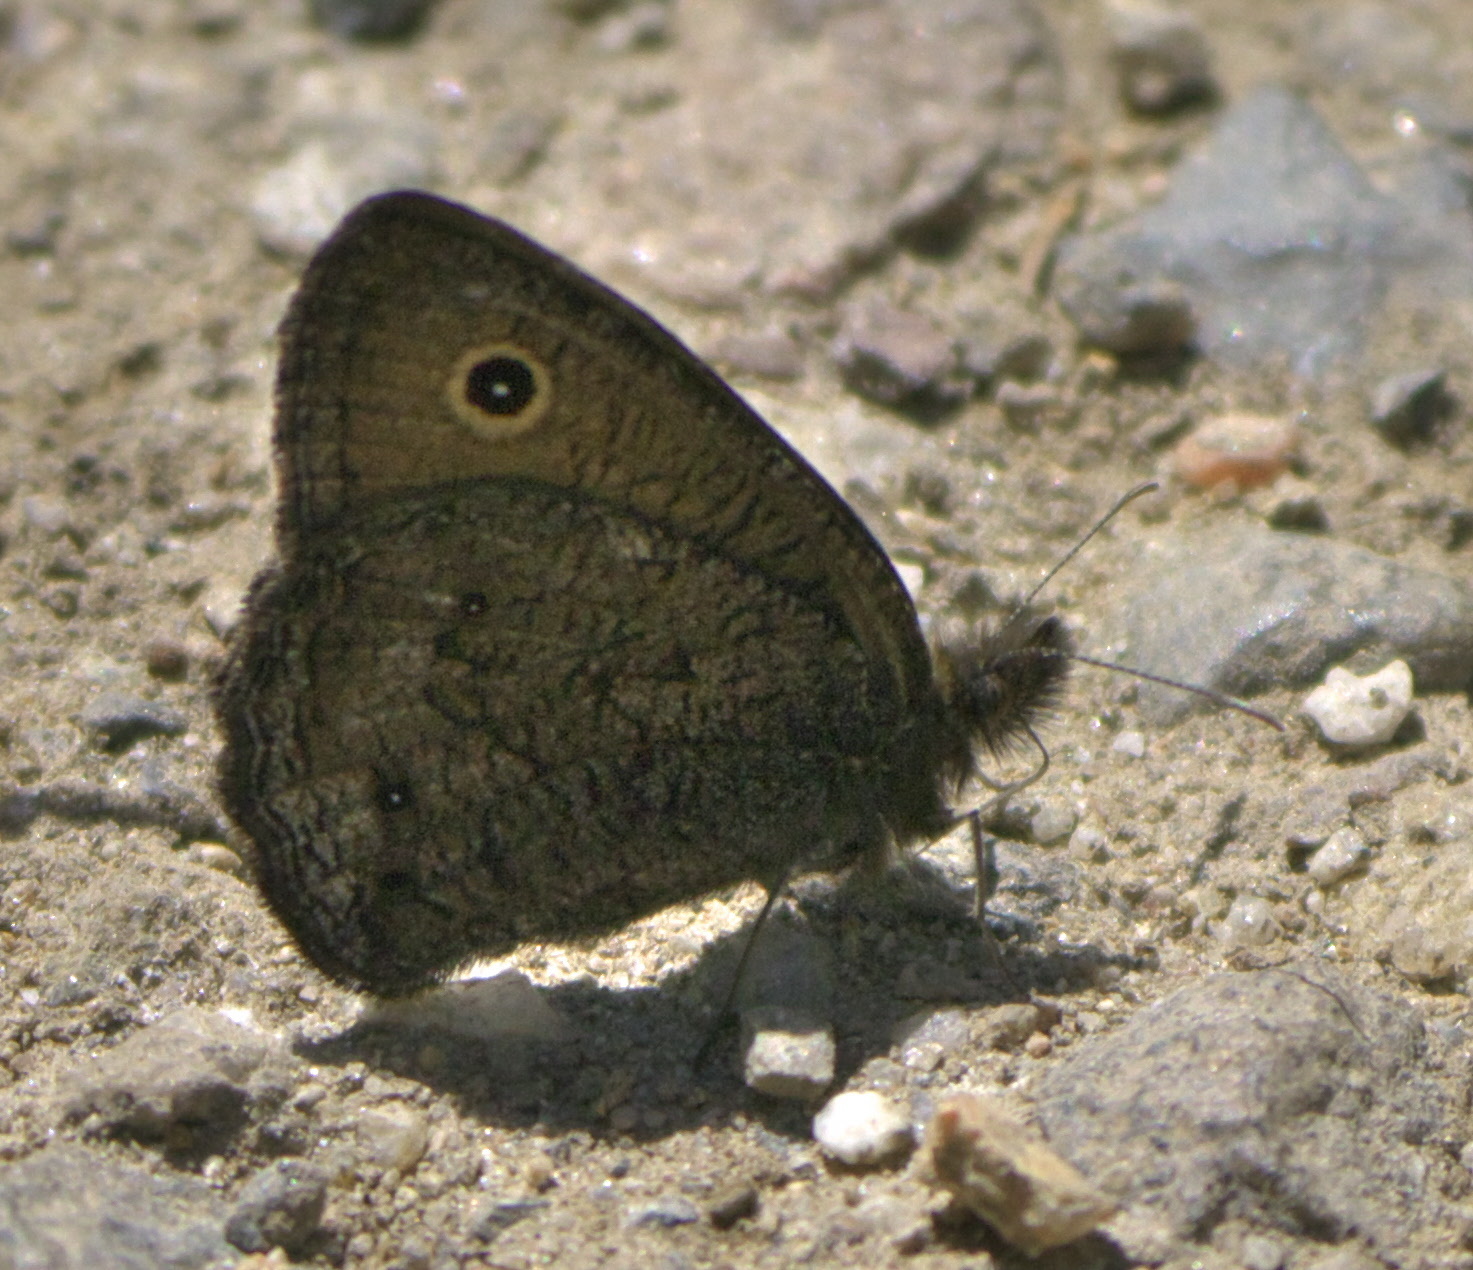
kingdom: Animalia
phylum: Arthropoda
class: Insecta
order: Lepidoptera
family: Nymphalidae
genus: Cercyonis
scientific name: Cercyonis oetus
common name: Small wood-nymph
